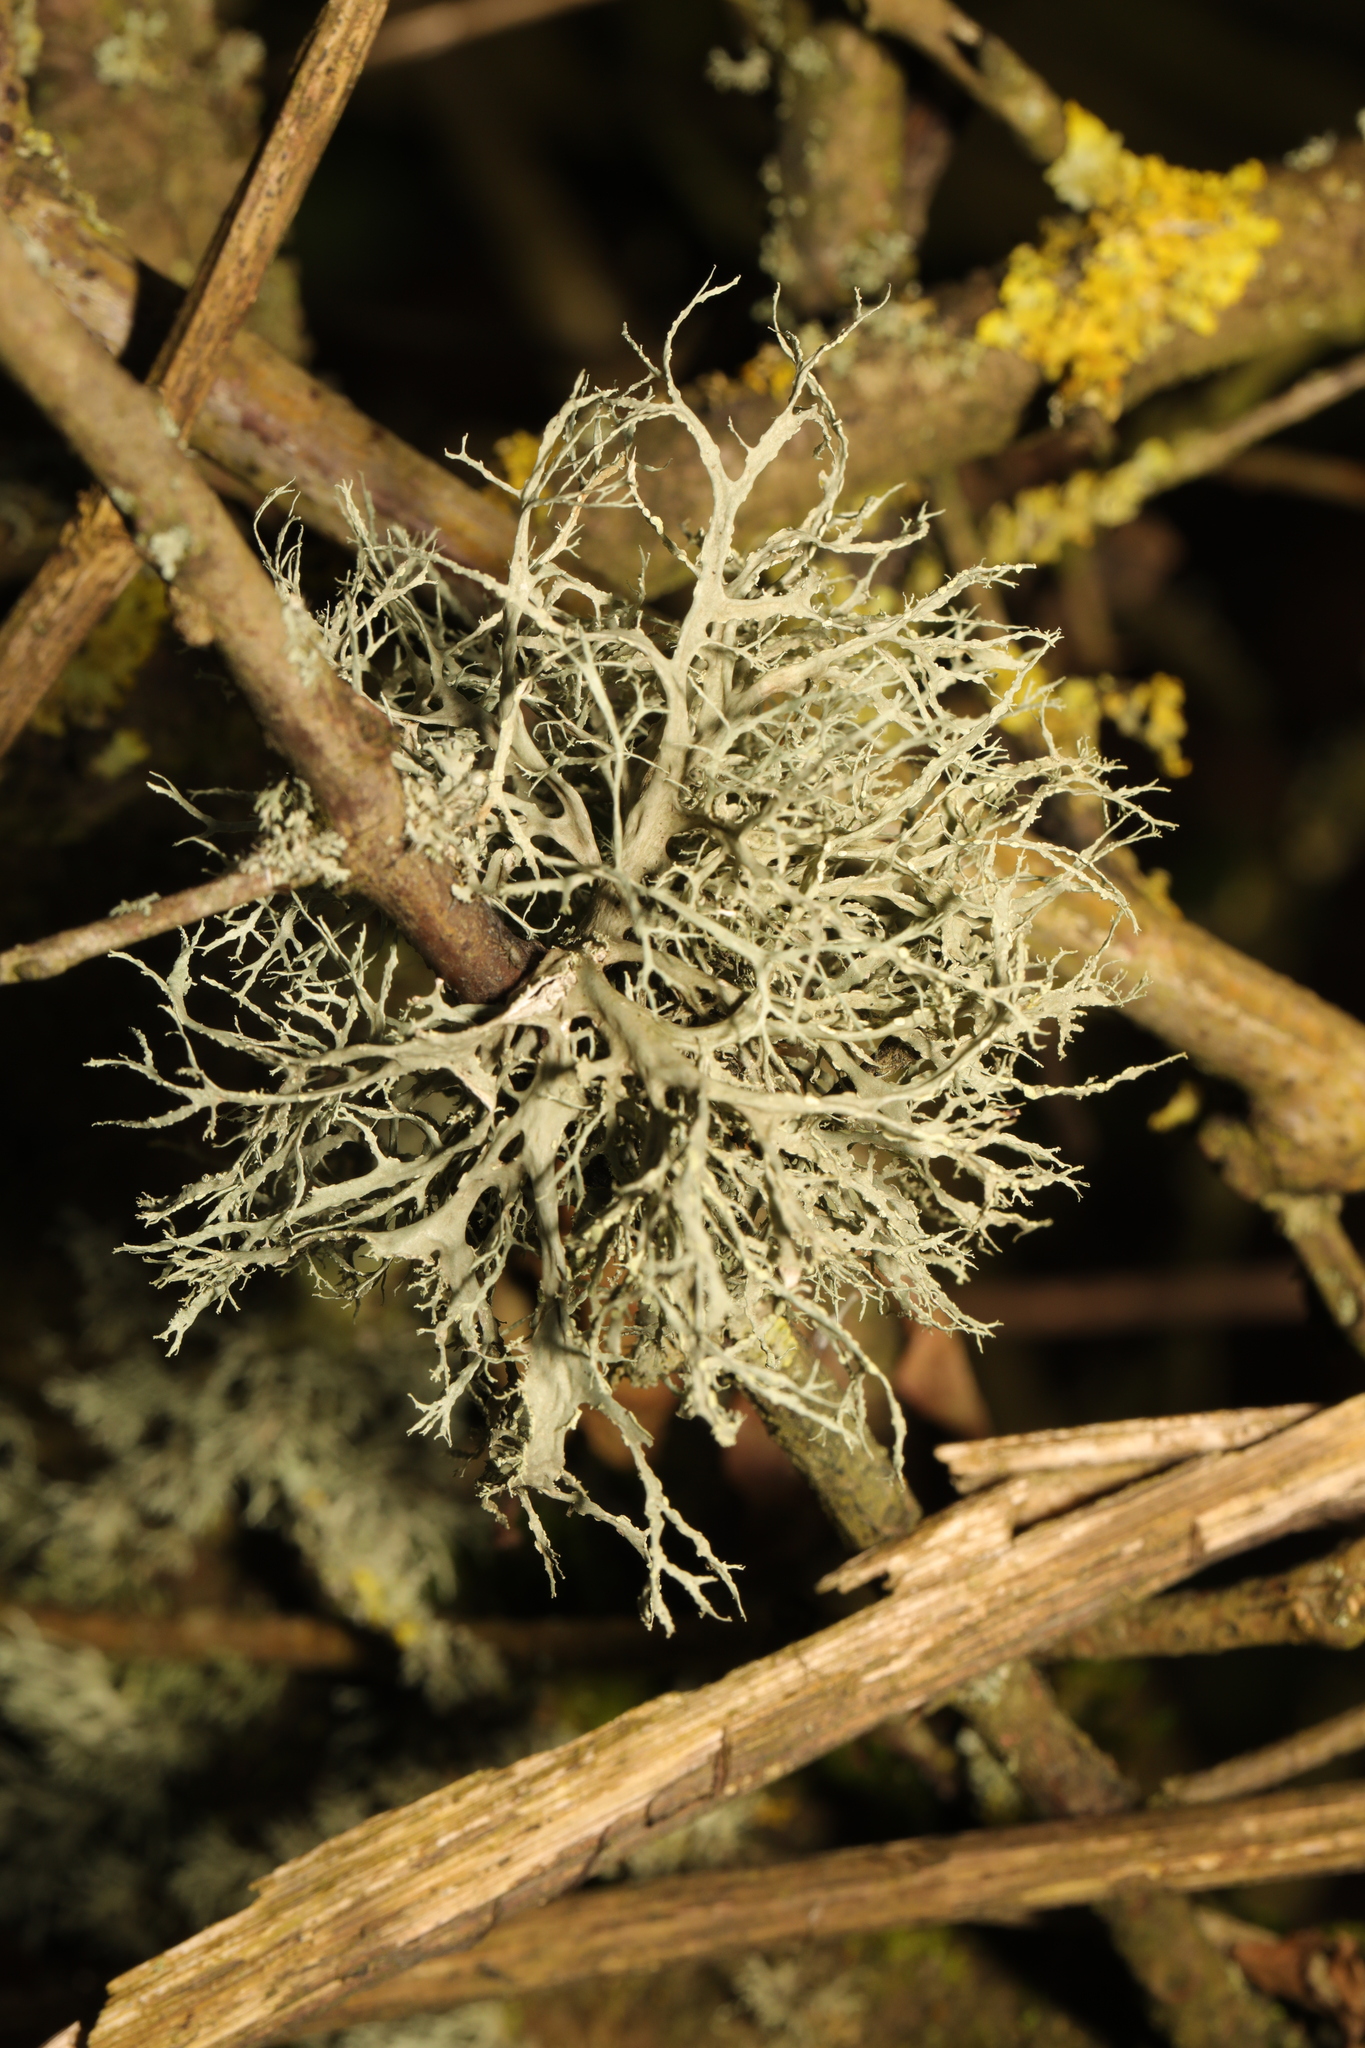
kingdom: Fungi
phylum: Ascomycota
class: Lecanoromycetes
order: Lecanorales
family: Ramalinaceae
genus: Ramalina
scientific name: Ramalina farinacea
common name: Farinose cartilage lichen
